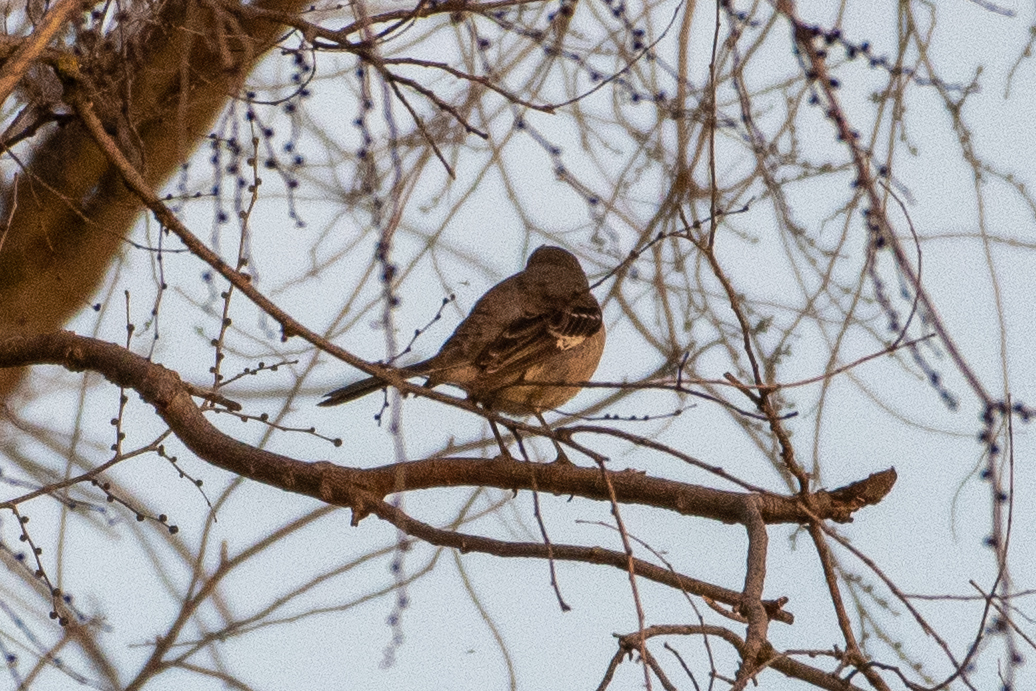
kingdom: Animalia
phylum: Chordata
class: Aves
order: Passeriformes
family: Mimidae
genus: Mimus
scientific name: Mimus polyglottos
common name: Northern mockingbird
